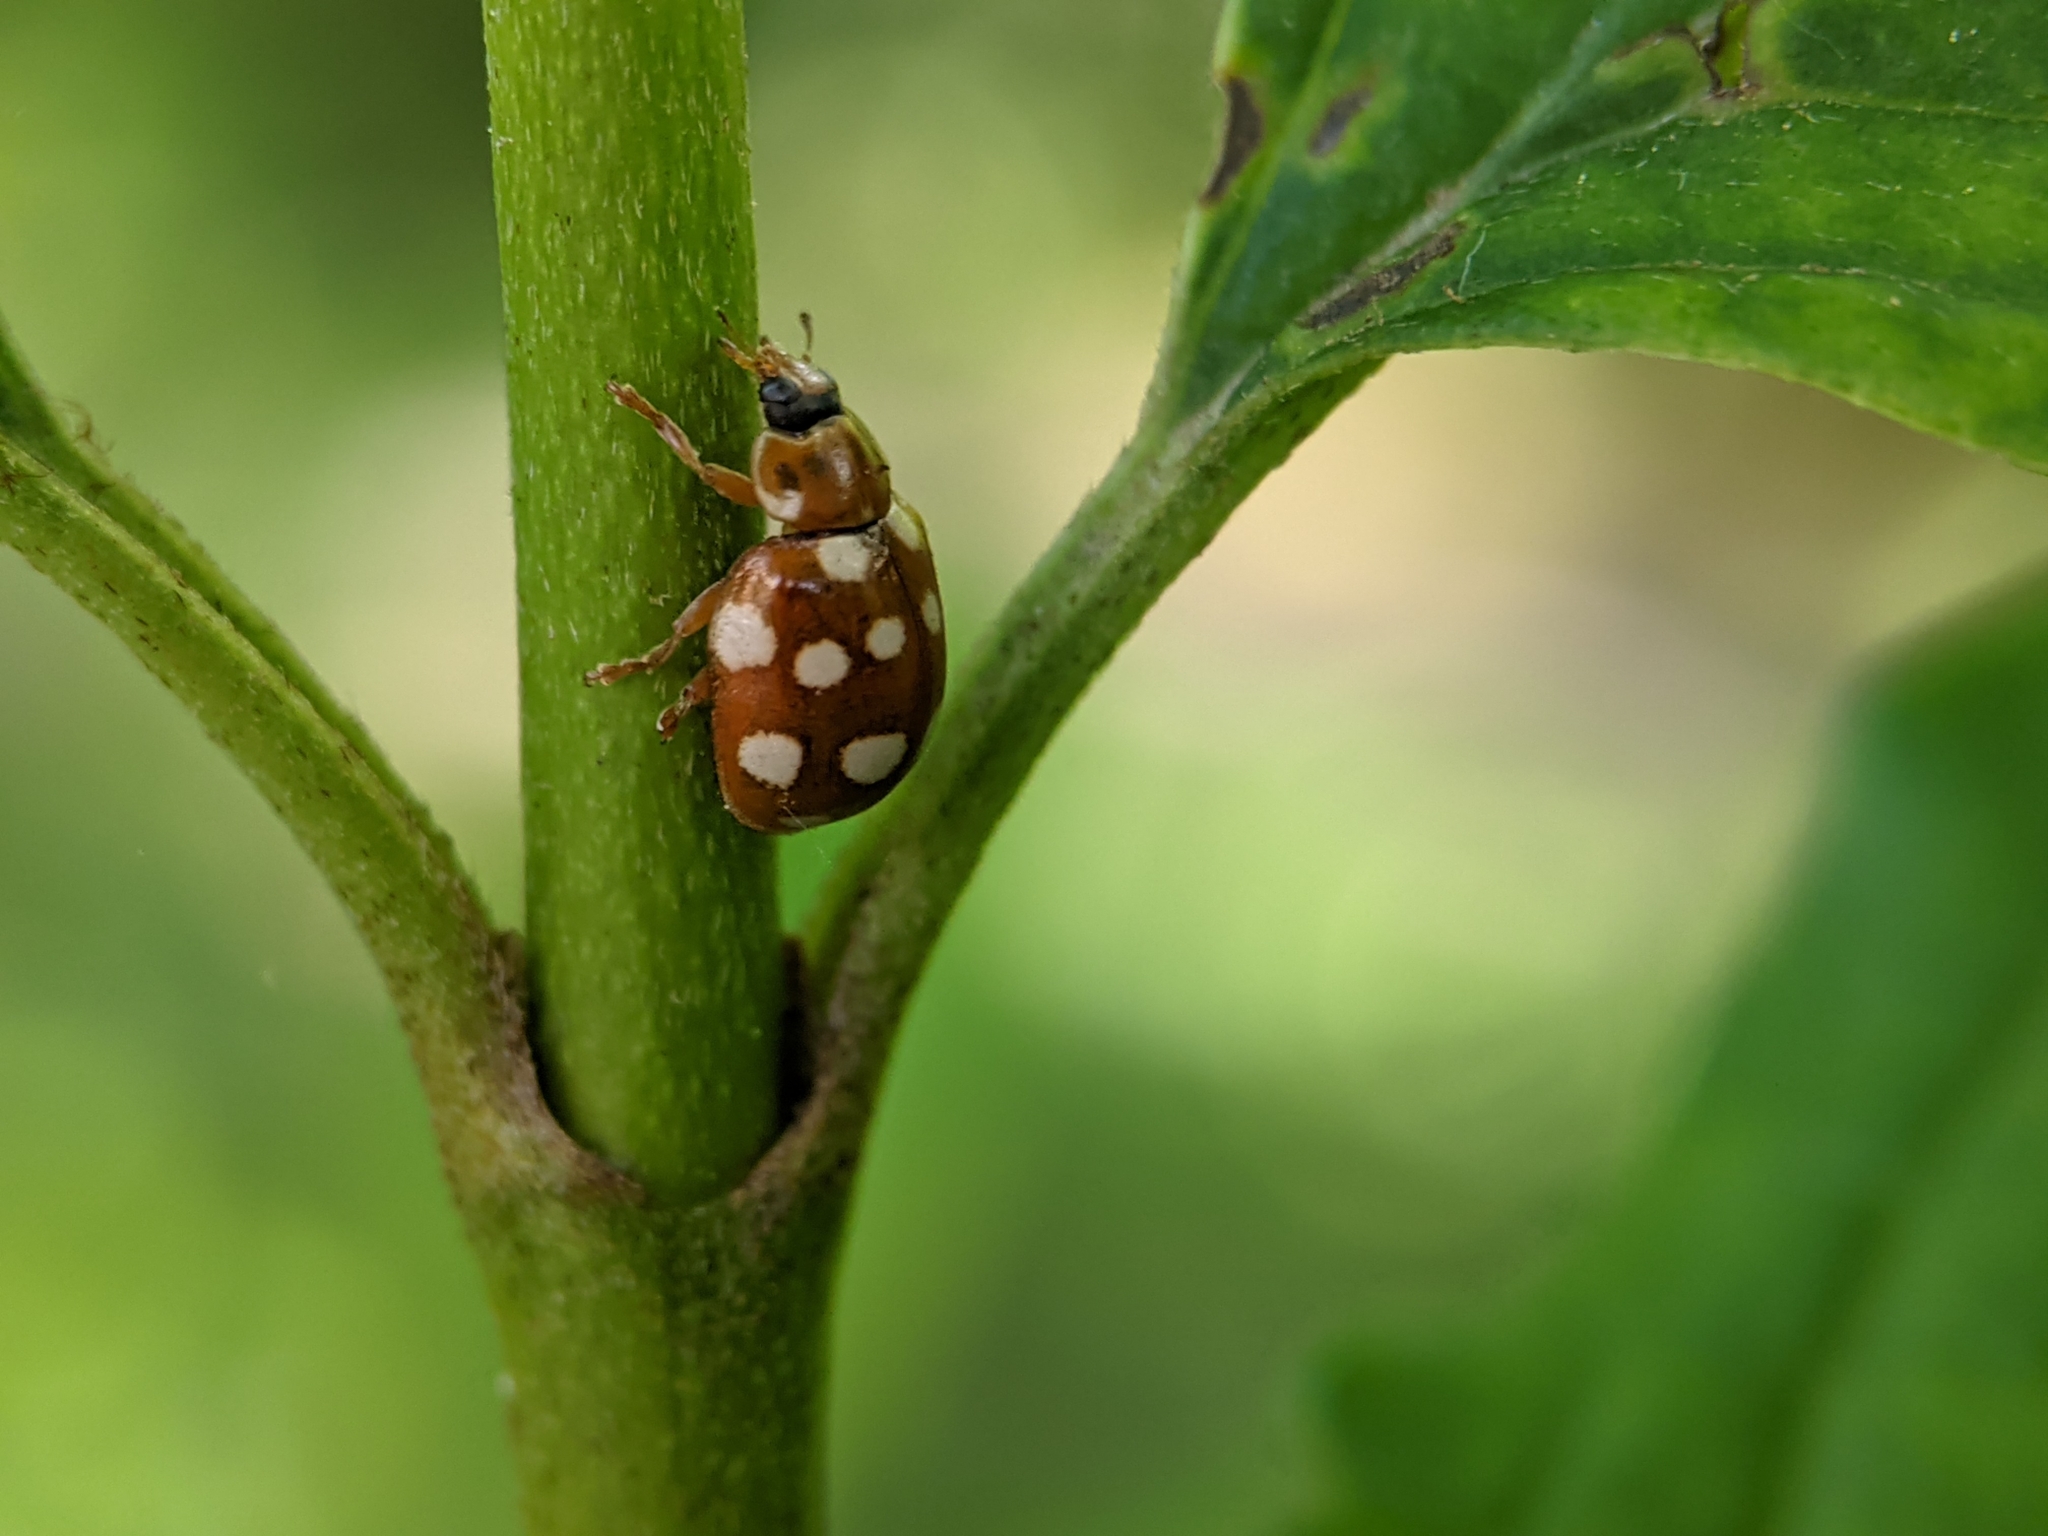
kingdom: Animalia
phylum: Arthropoda
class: Insecta
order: Coleoptera
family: Coccinellidae
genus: Calvia
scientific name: Calvia quatuordecimguttata
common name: Cream-spot ladybird
